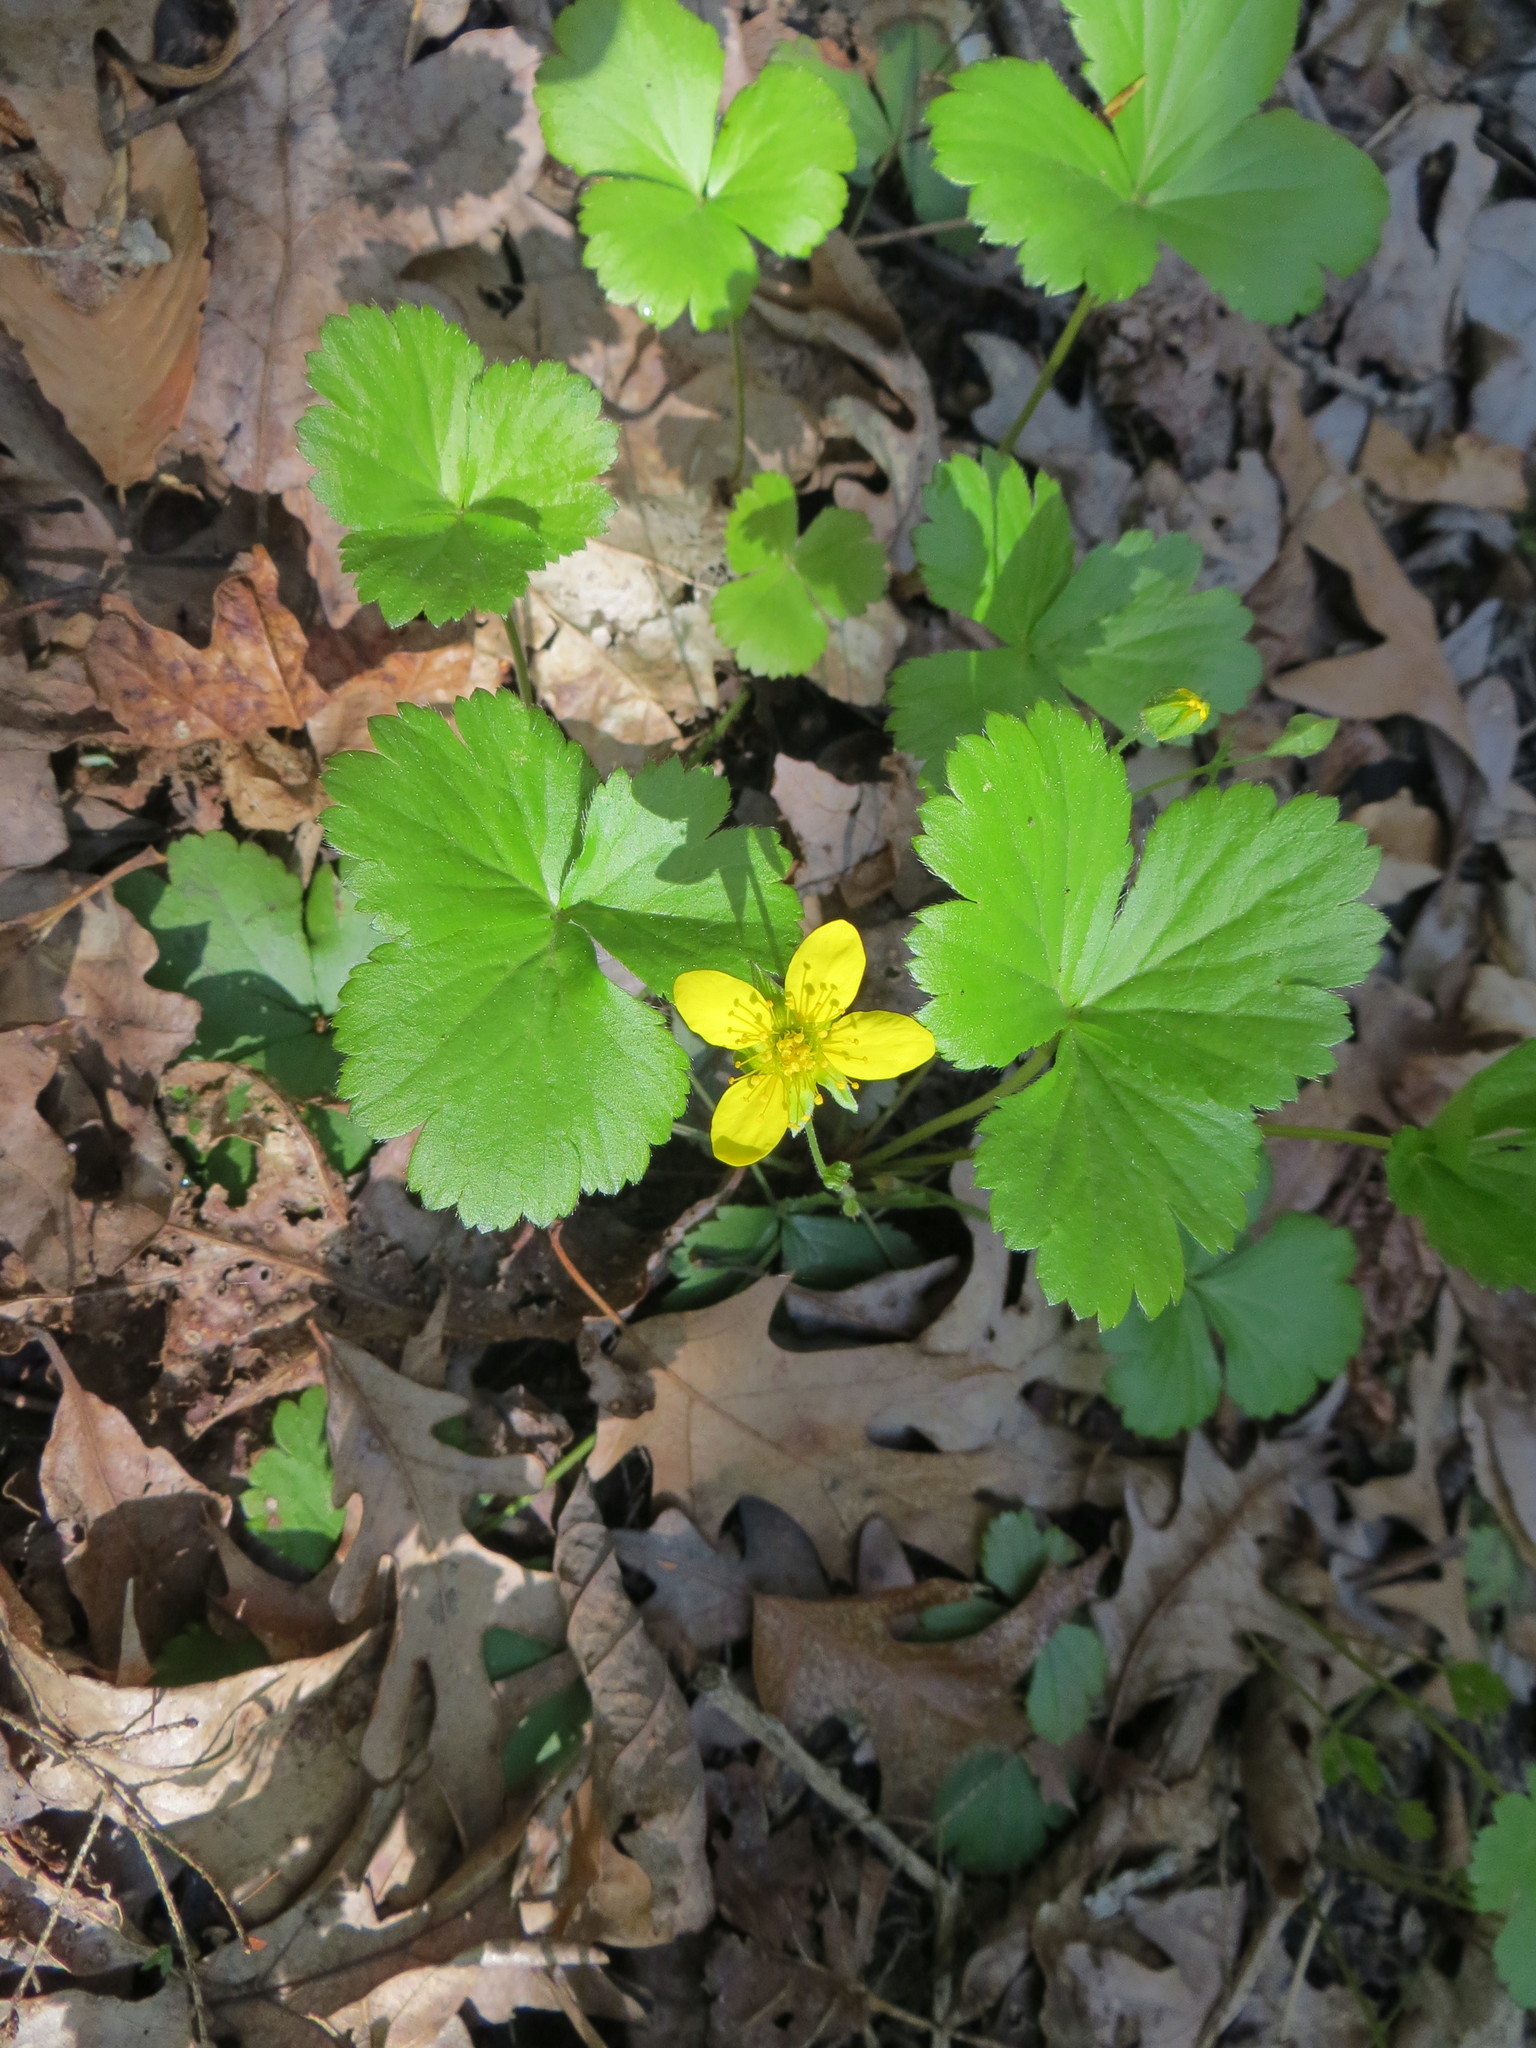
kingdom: Plantae
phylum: Tracheophyta
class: Magnoliopsida
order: Rosales
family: Rosaceae
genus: Geum
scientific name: Geum fragarioides
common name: Appalachian barren strawberry
